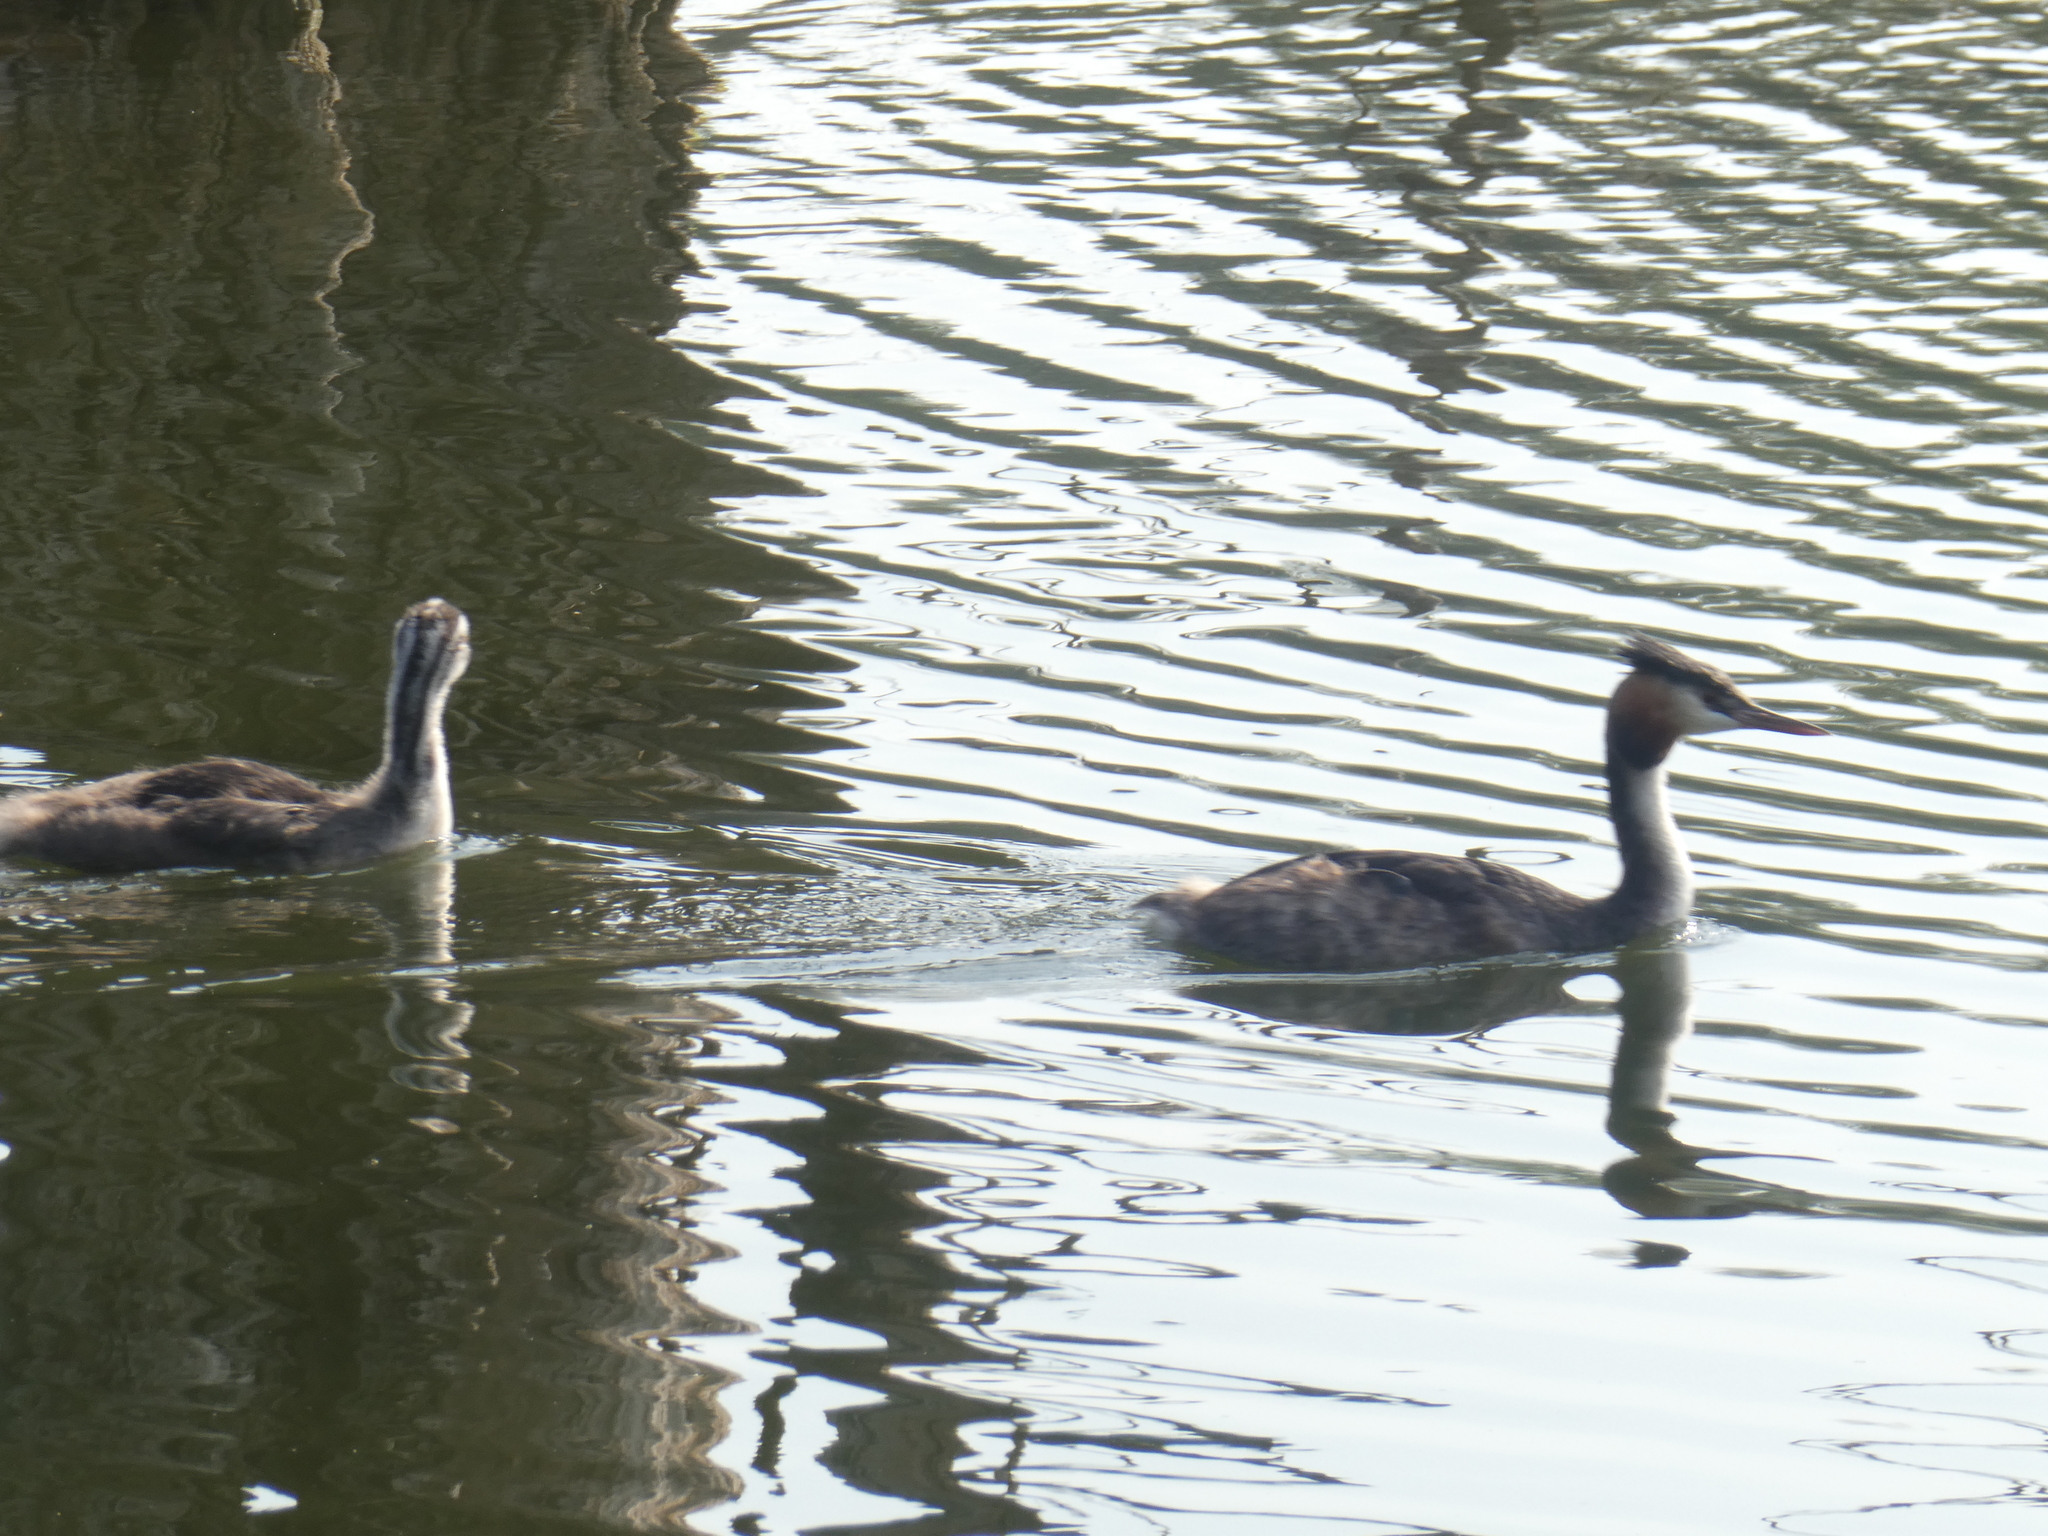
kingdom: Animalia
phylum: Chordata
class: Aves
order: Podicipediformes
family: Podicipedidae
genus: Podiceps
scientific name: Podiceps cristatus
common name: Great crested grebe
